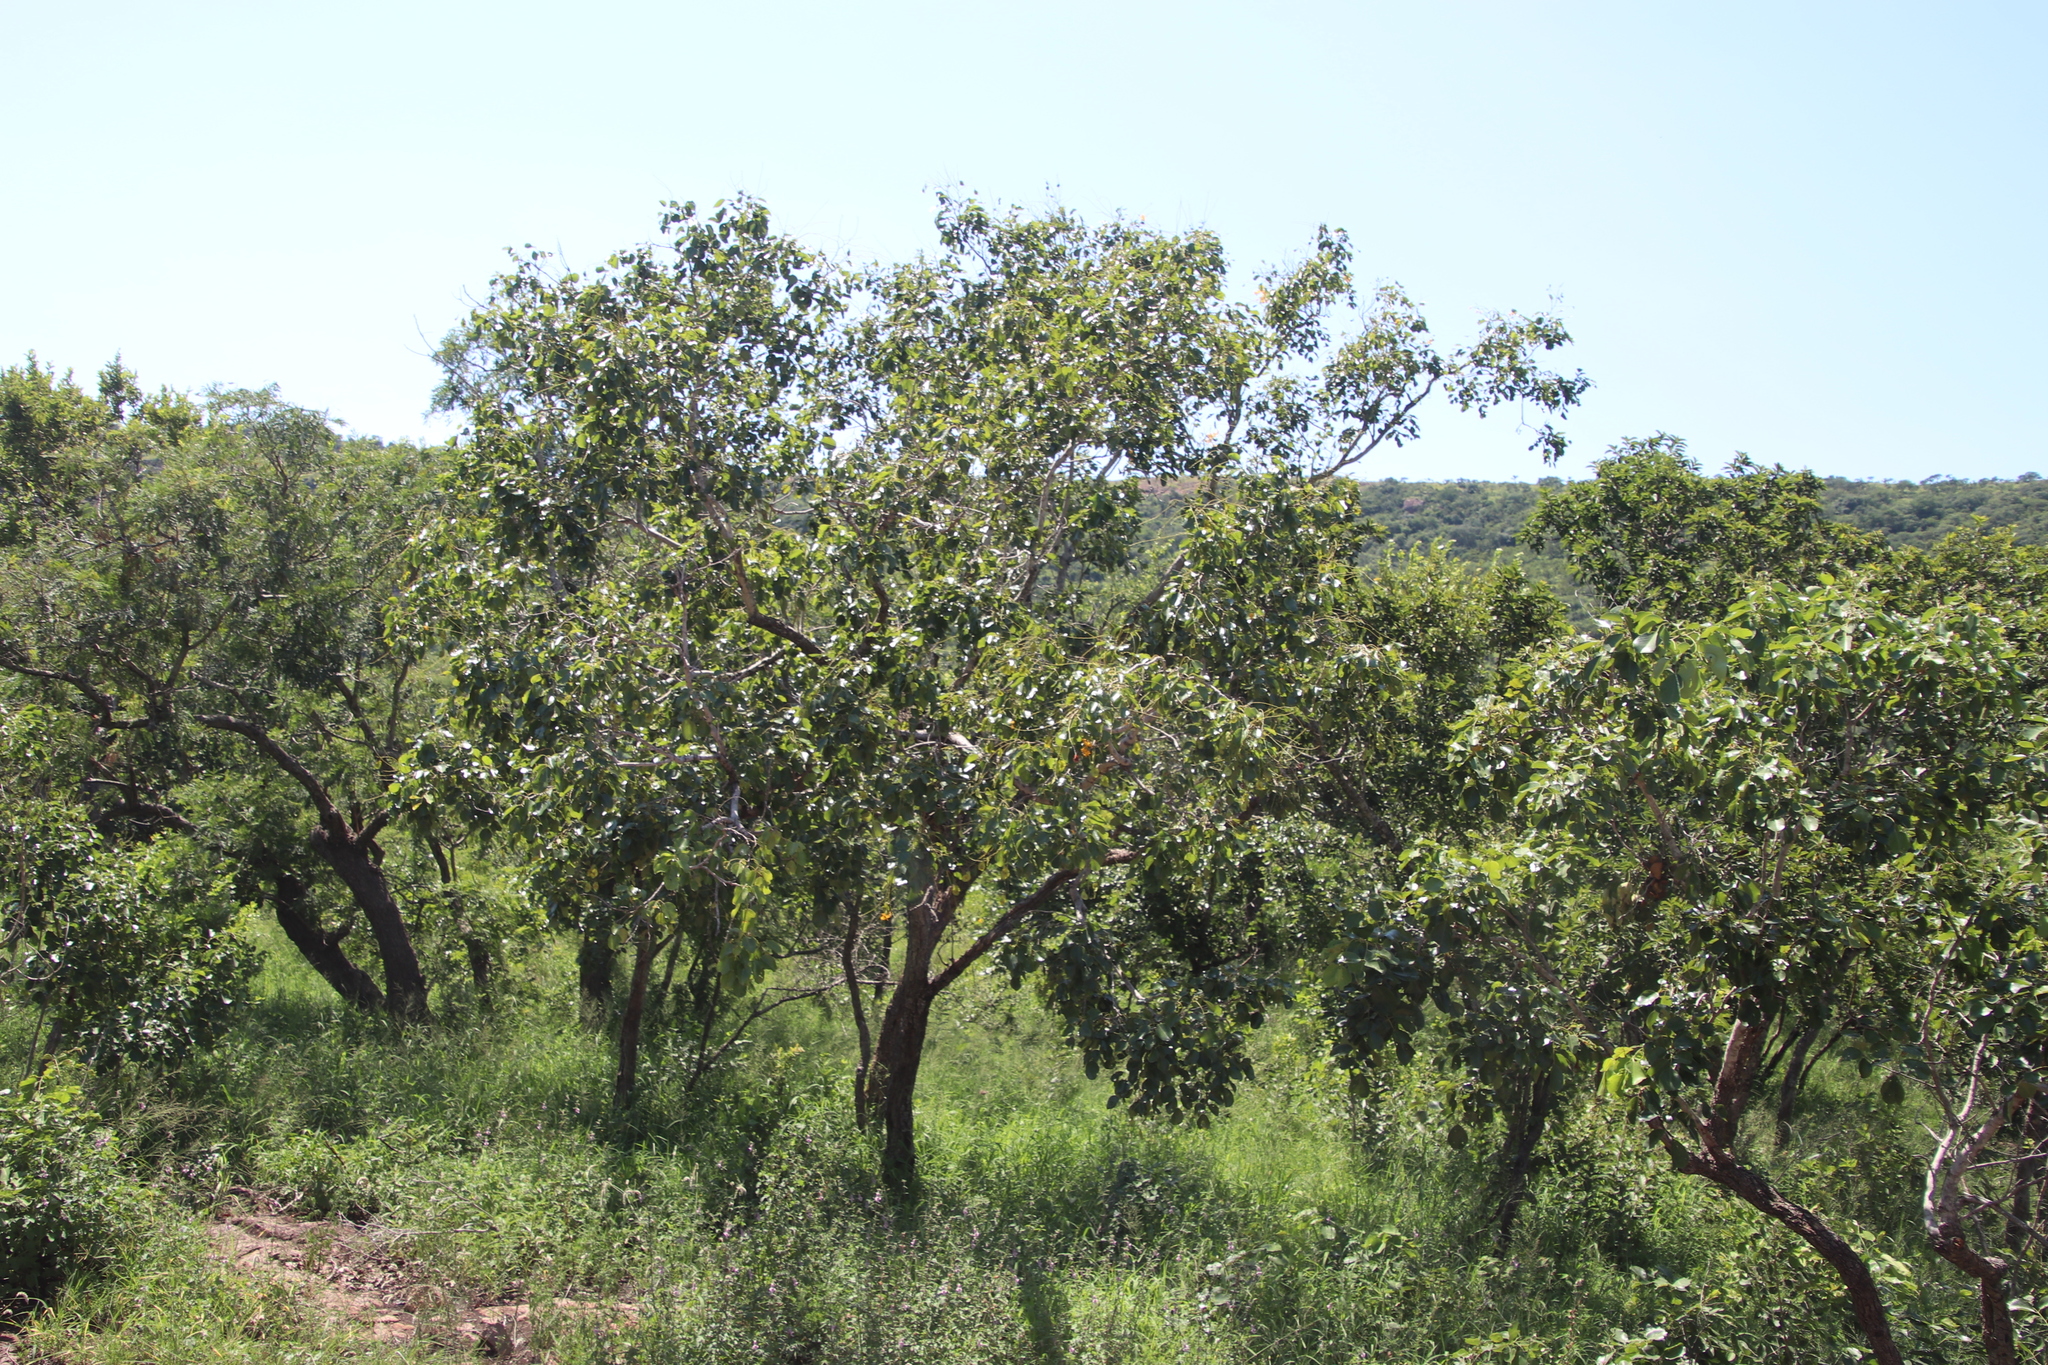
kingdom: Plantae
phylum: Tracheophyta
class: Magnoliopsida
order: Fabales
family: Fabaceae
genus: Pterocarpus
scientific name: Pterocarpus rotundifolius
